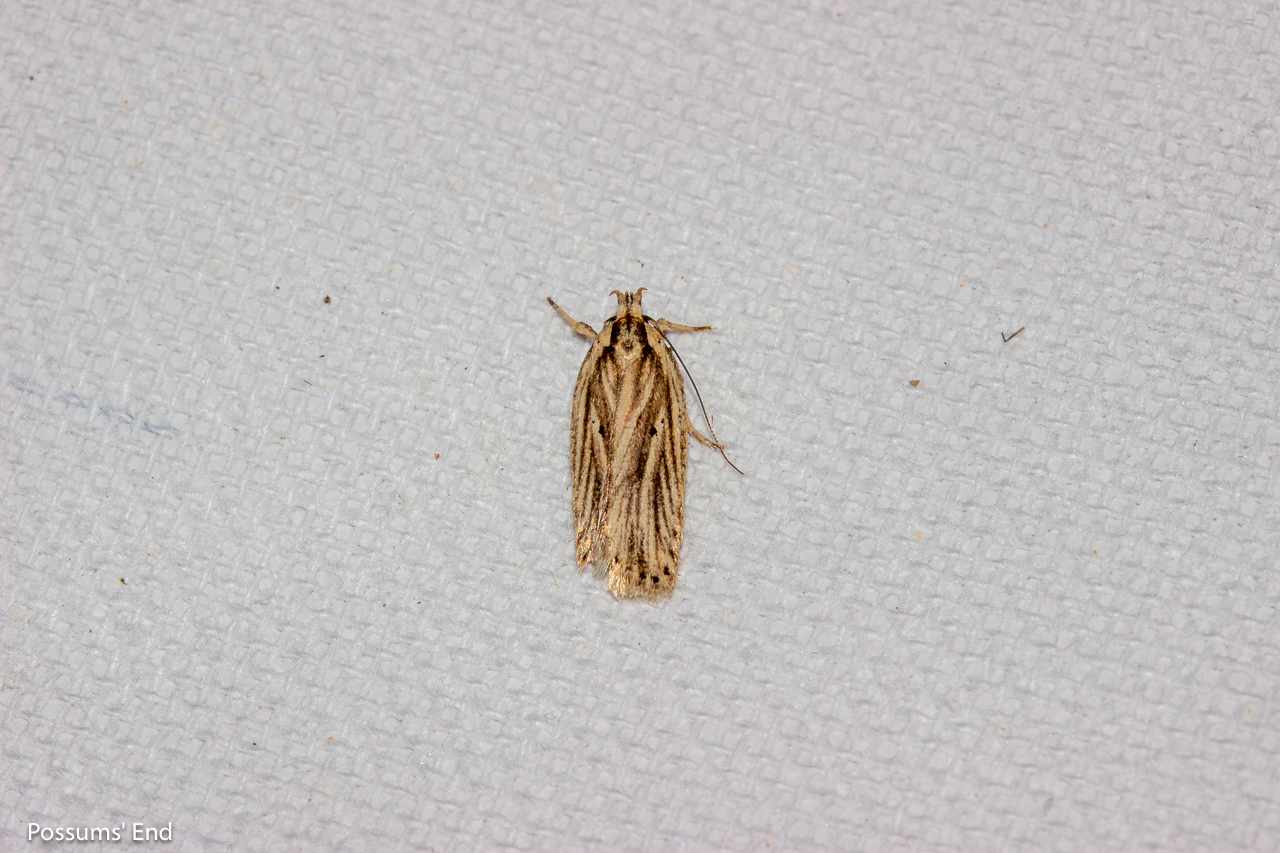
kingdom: Animalia
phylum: Arthropoda
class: Insecta
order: Lepidoptera
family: Depressariidae
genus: Agonopterix
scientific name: Agonopterix
